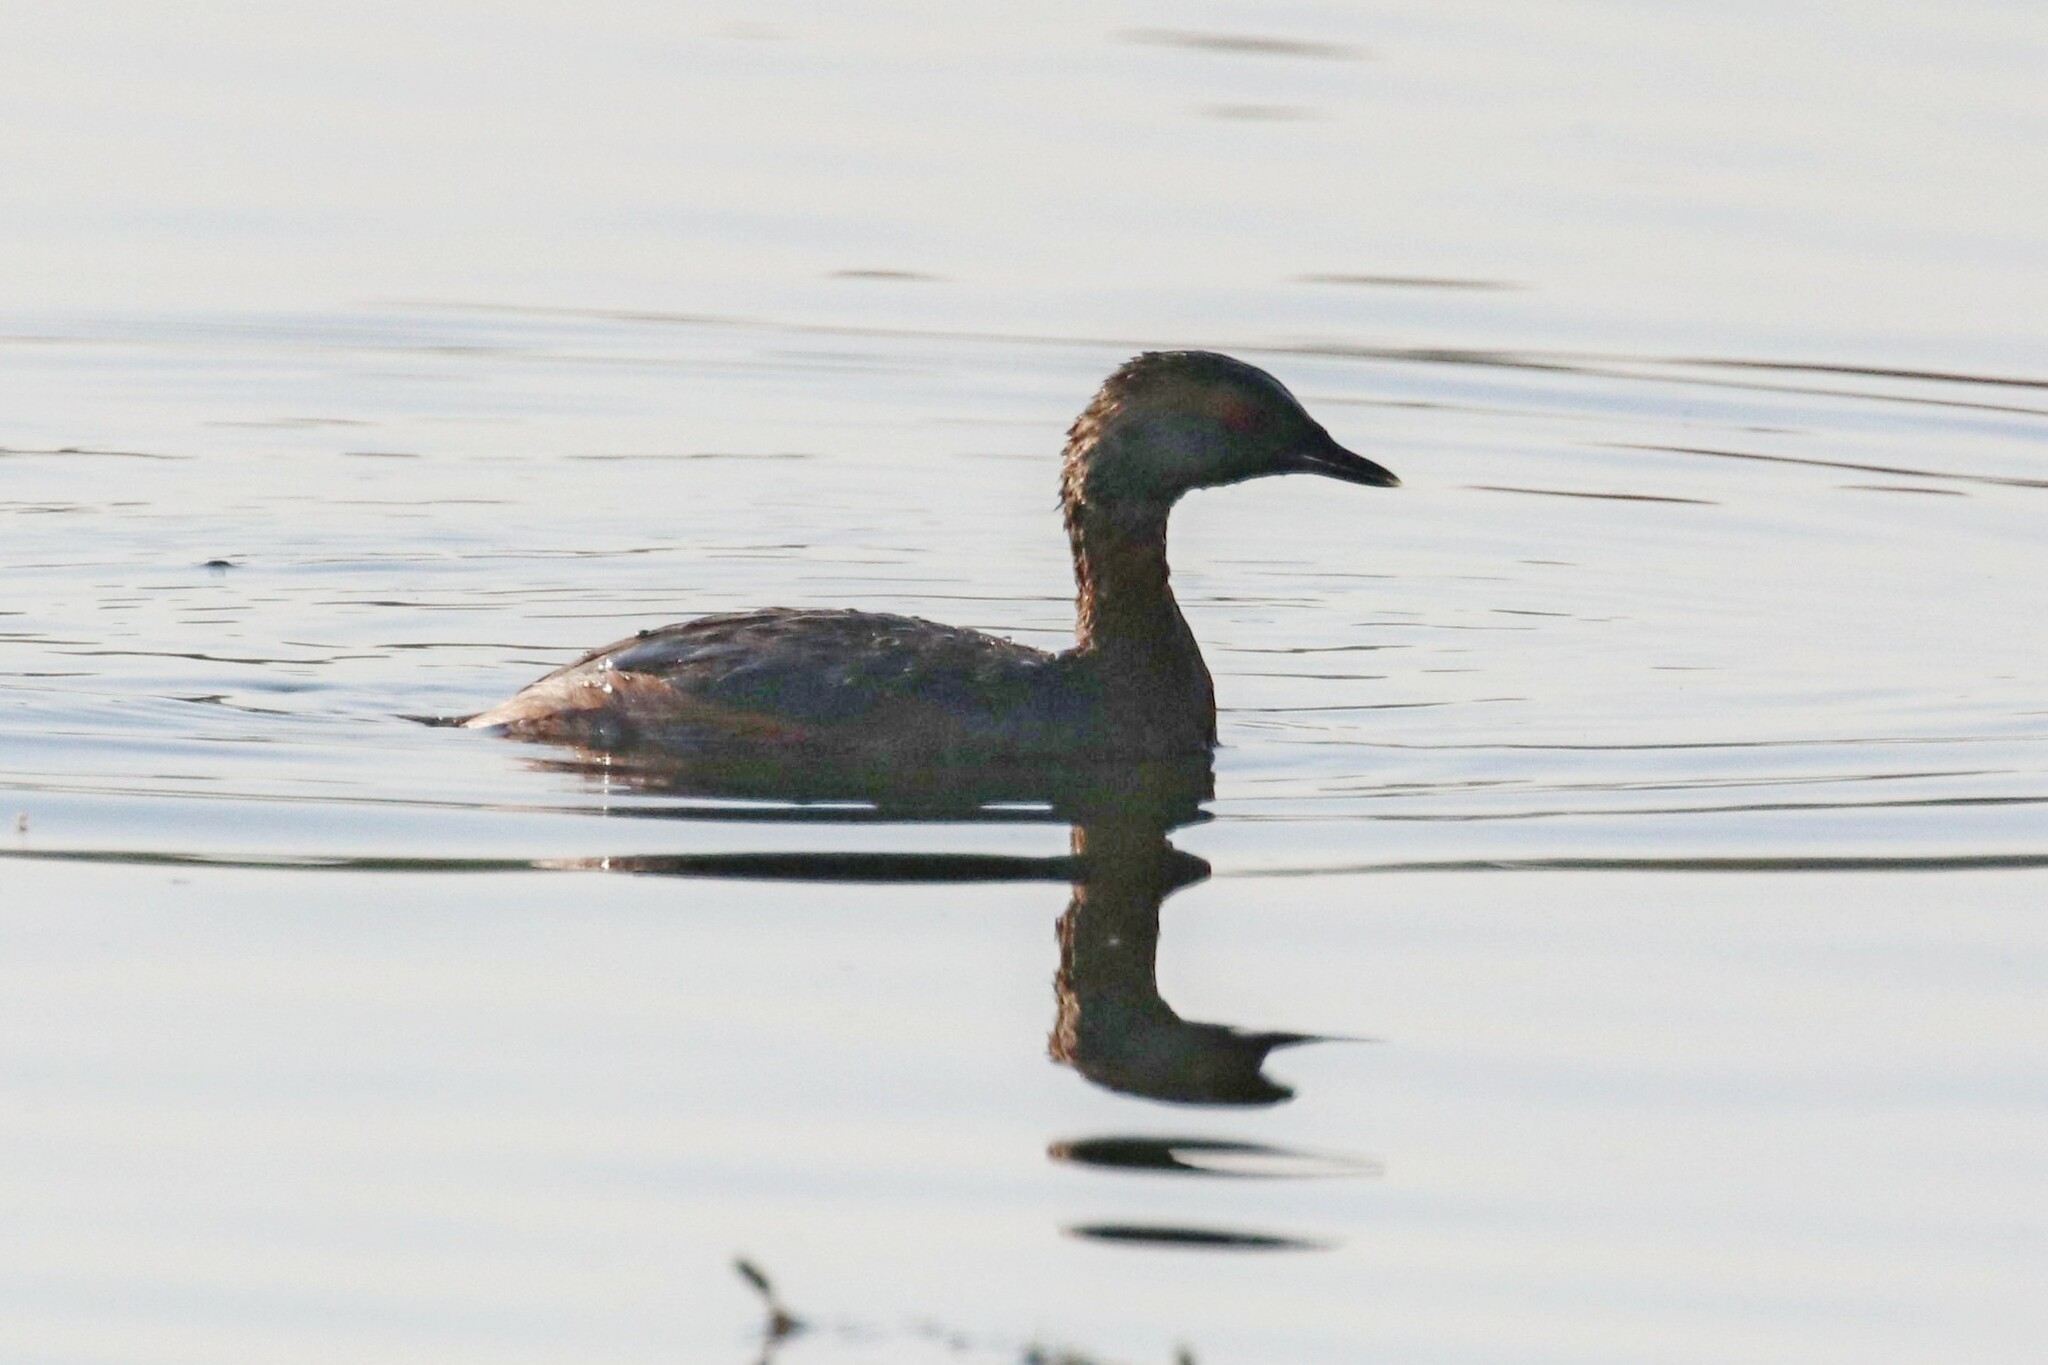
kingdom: Animalia
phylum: Chordata
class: Aves
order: Podicipediformes
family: Podicipedidae
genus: Podiceps
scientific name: Podiceps auritus
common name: Horned grebe
